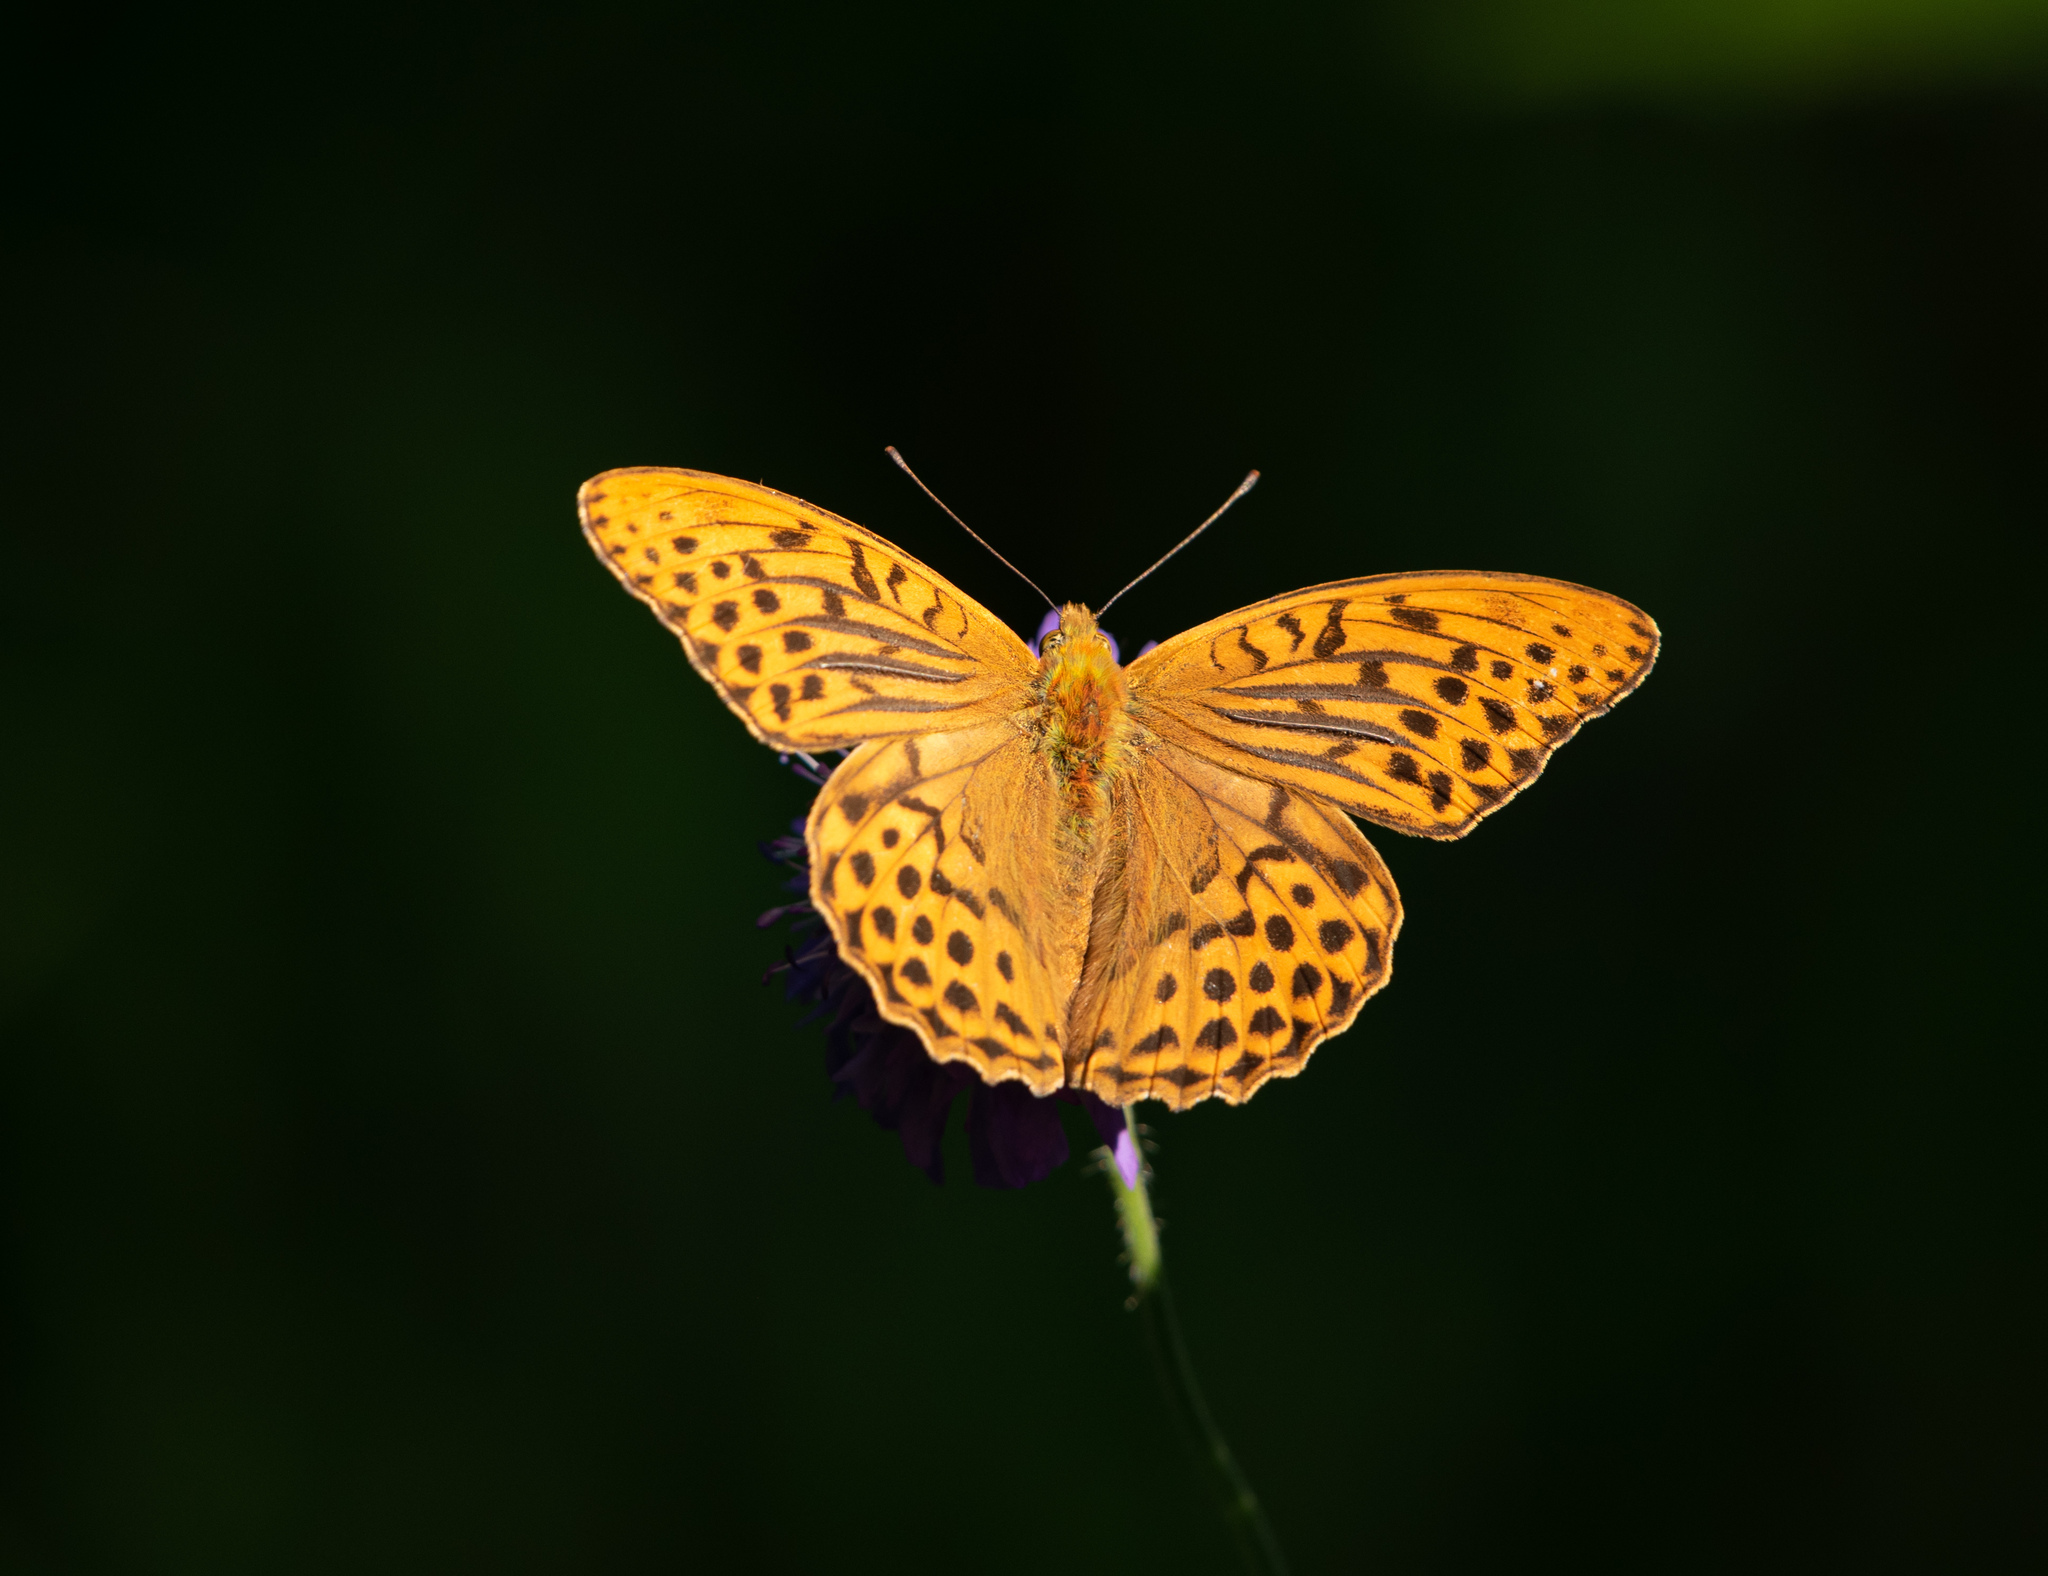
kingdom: Animalia
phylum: Arthropoda
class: Insecta
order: Lepidoptera
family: Nymphalidae
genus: Argynnis
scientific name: Argynnis paphia
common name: Silver-washed fritillary
